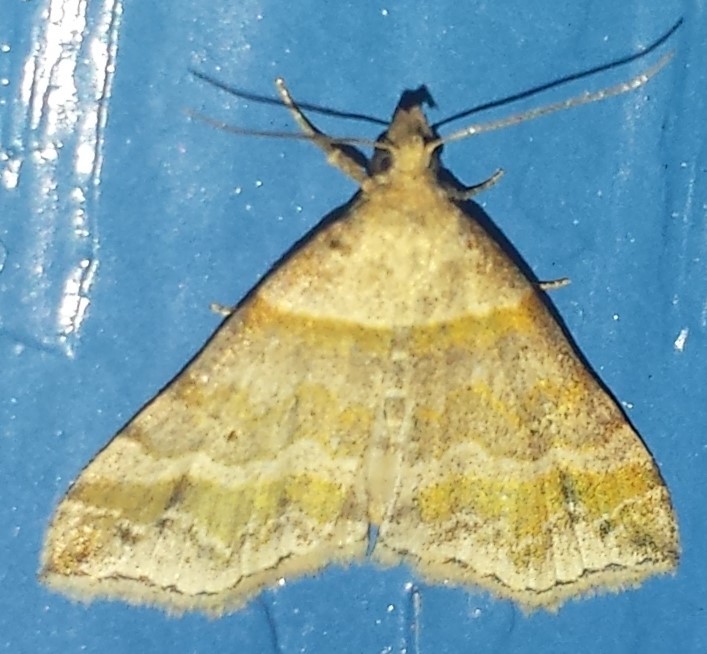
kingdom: Animalia
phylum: Arthropoda
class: Insecta
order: Lepidoptera
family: Erebidae
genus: Phaeolita
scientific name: Phaeolita pyramusalis
